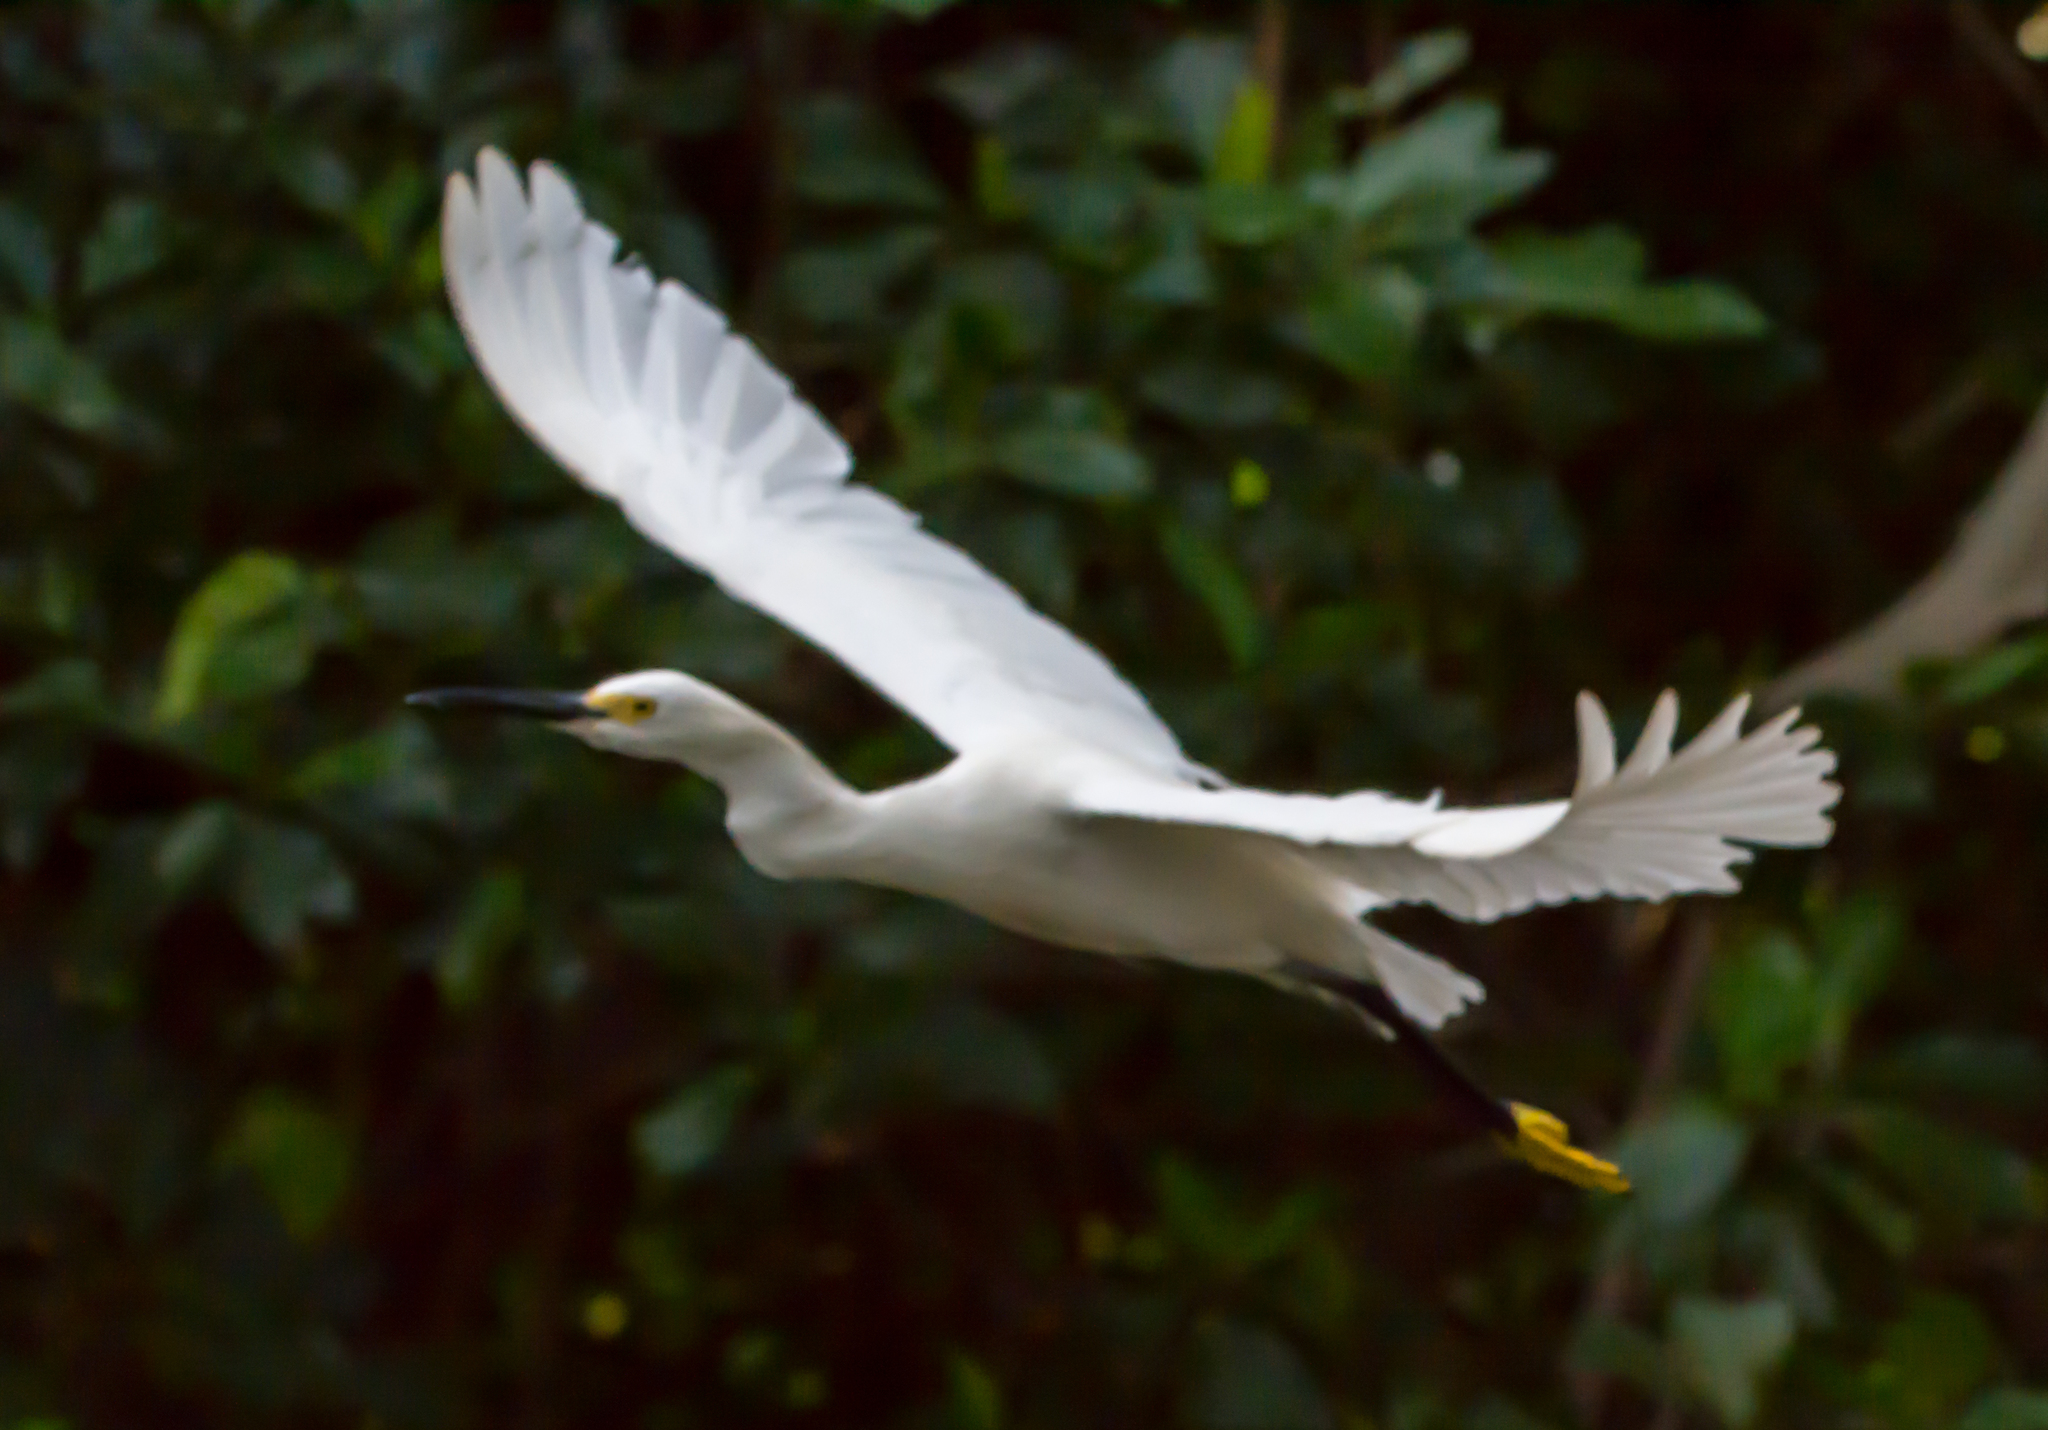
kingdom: Animalia
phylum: Chordata
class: Aves
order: Pelecaniformes
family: Ardeidae
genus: Egretta
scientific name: Egretta thula
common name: Snowy egret
